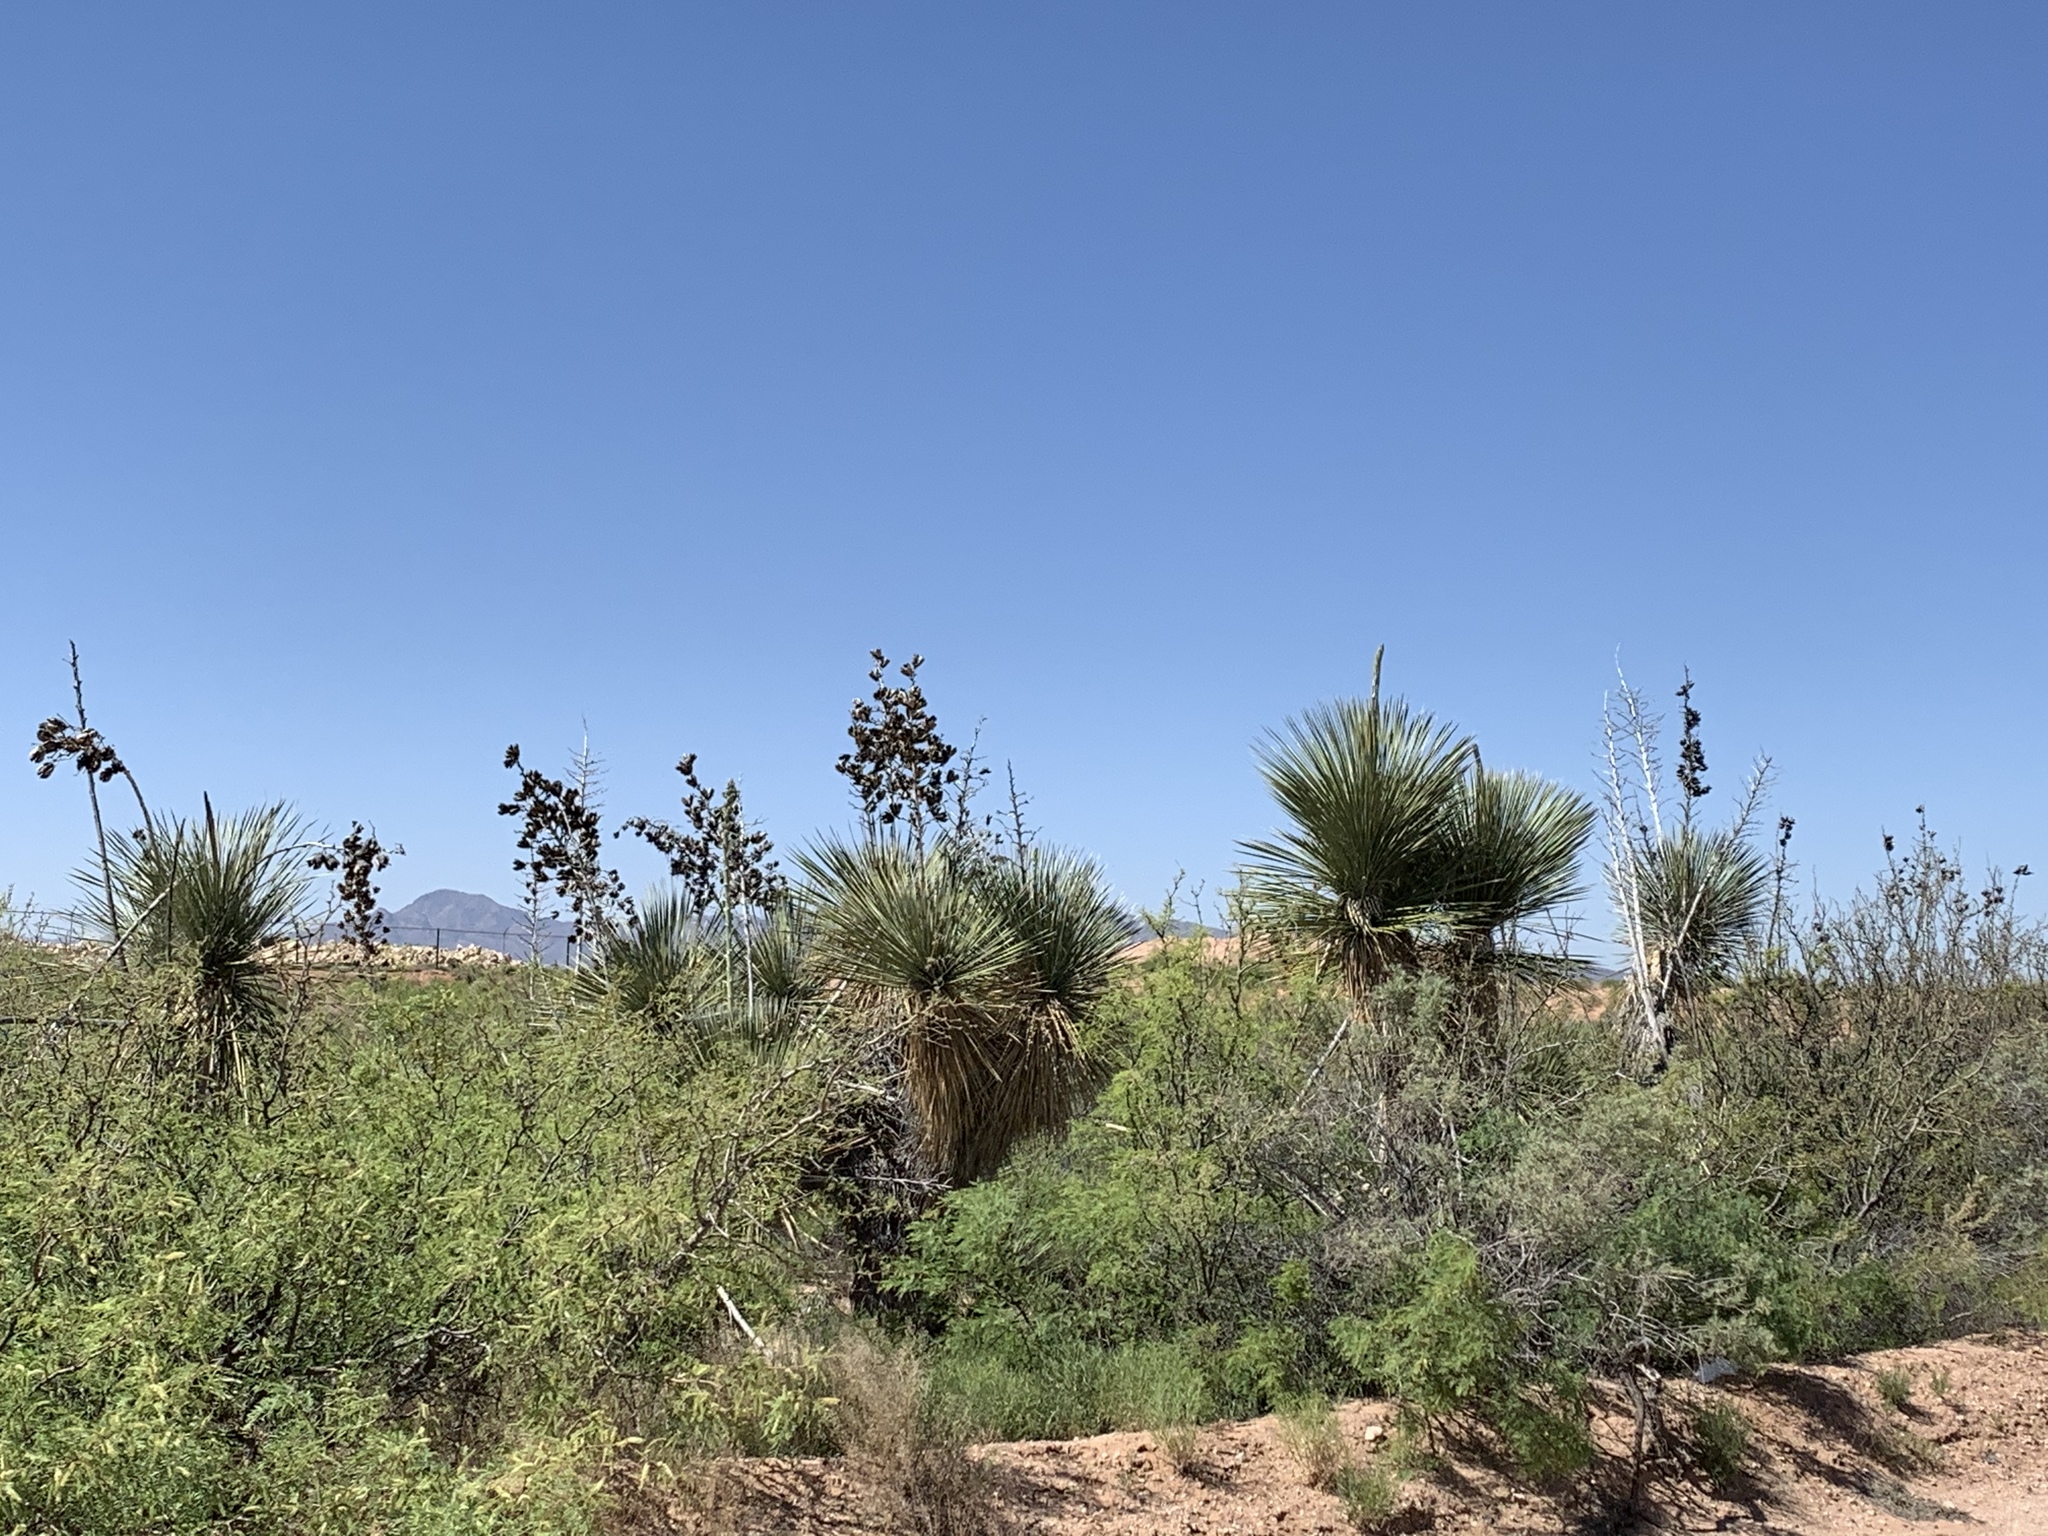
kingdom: Plantae
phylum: Tracheophyta
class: Liliopsida
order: Asparagales
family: Asparagaceae
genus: Yucca
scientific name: Yucca elata
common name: Palmella
